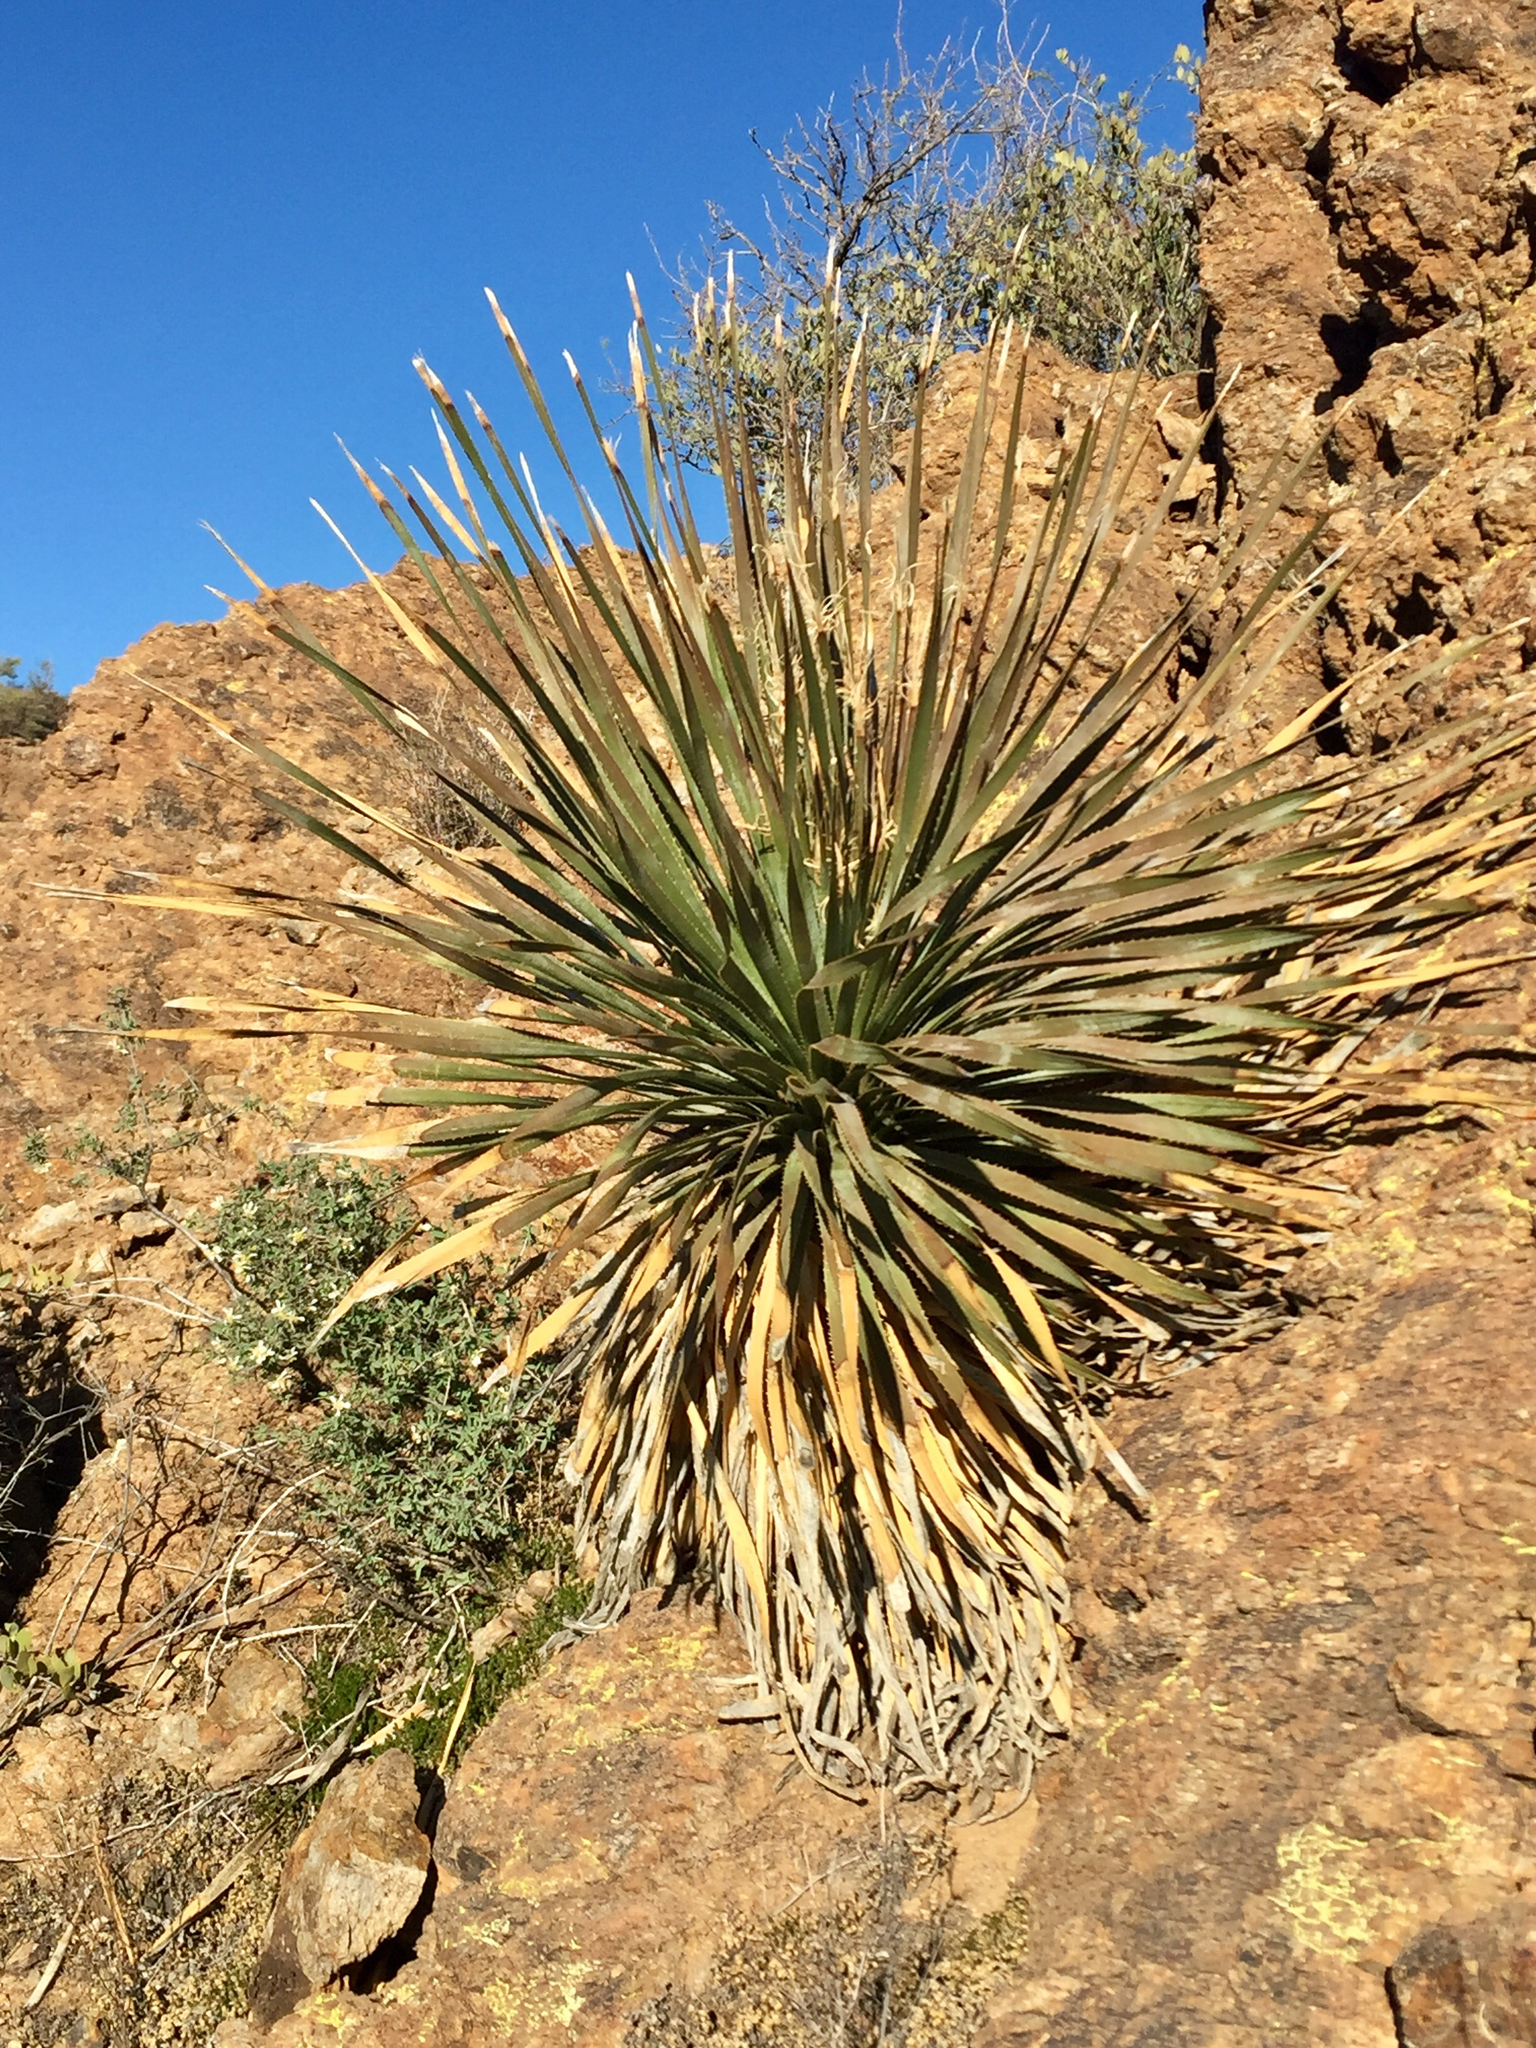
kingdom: Plantae
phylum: Tracheophyta
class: Liliopsida
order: Asparagales
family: Asparagaceae
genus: Dasylirion
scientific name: Dasylirion wheeleri
